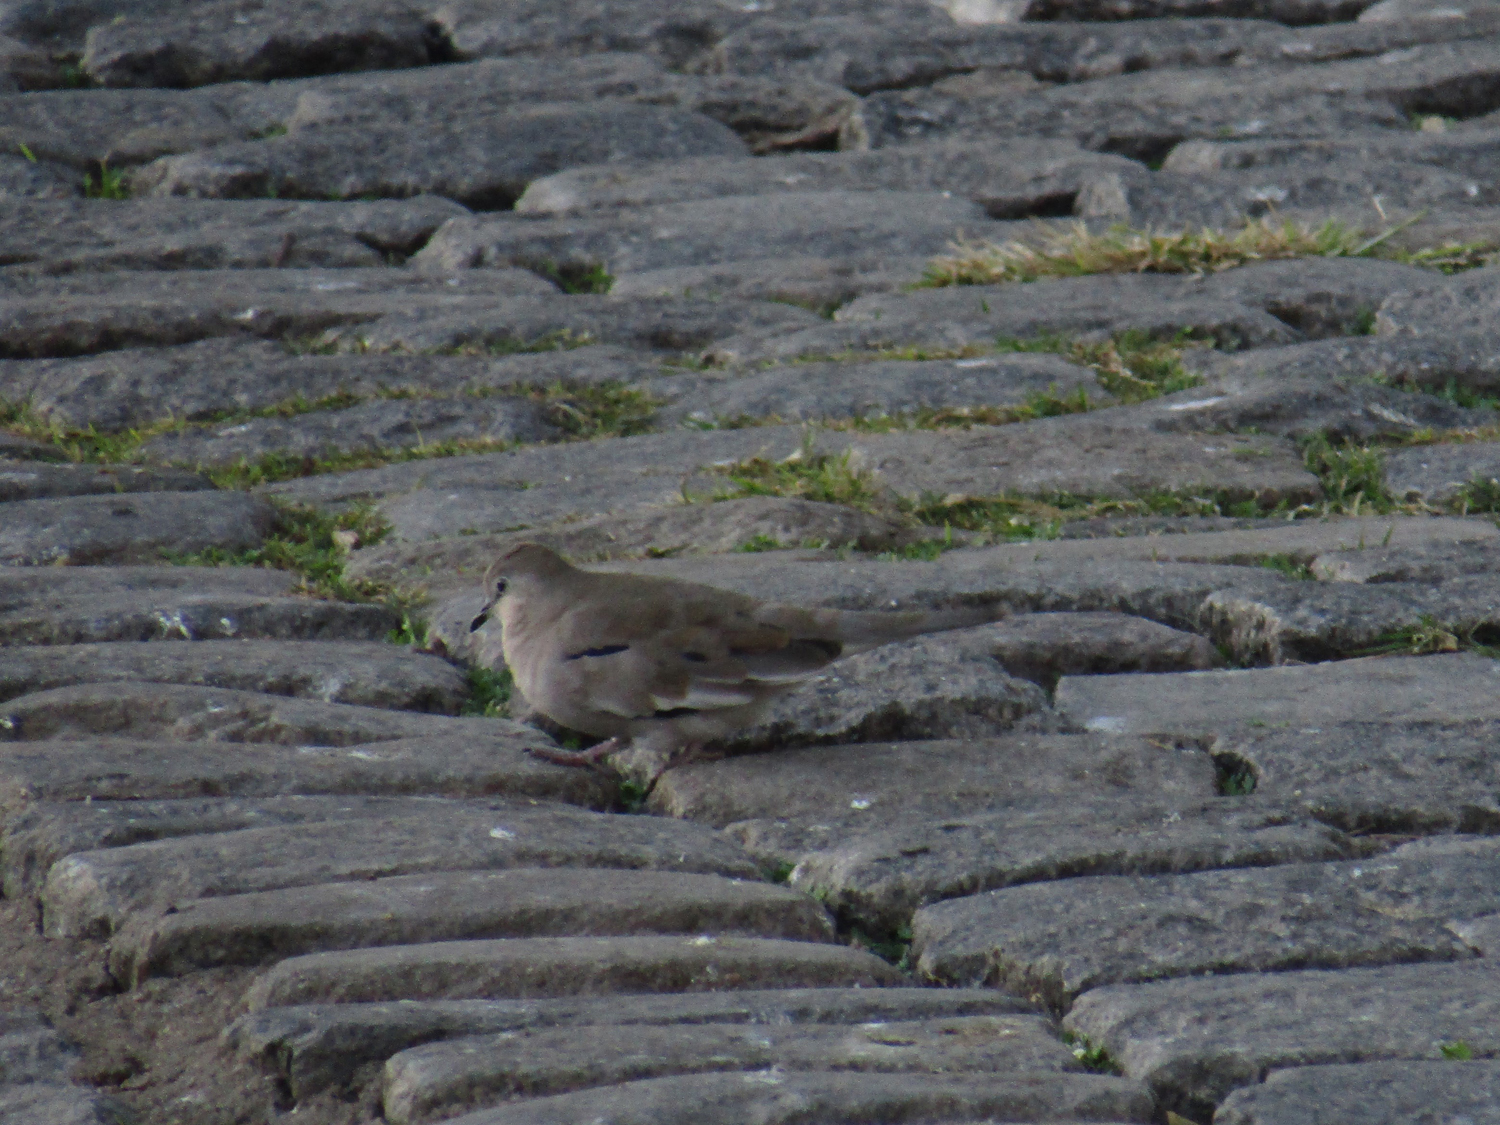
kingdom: Animalia
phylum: Chordata
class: Aves
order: Columbiformes
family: Columbidae
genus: Columbina
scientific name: Columbina picui
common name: Picui ground dove
